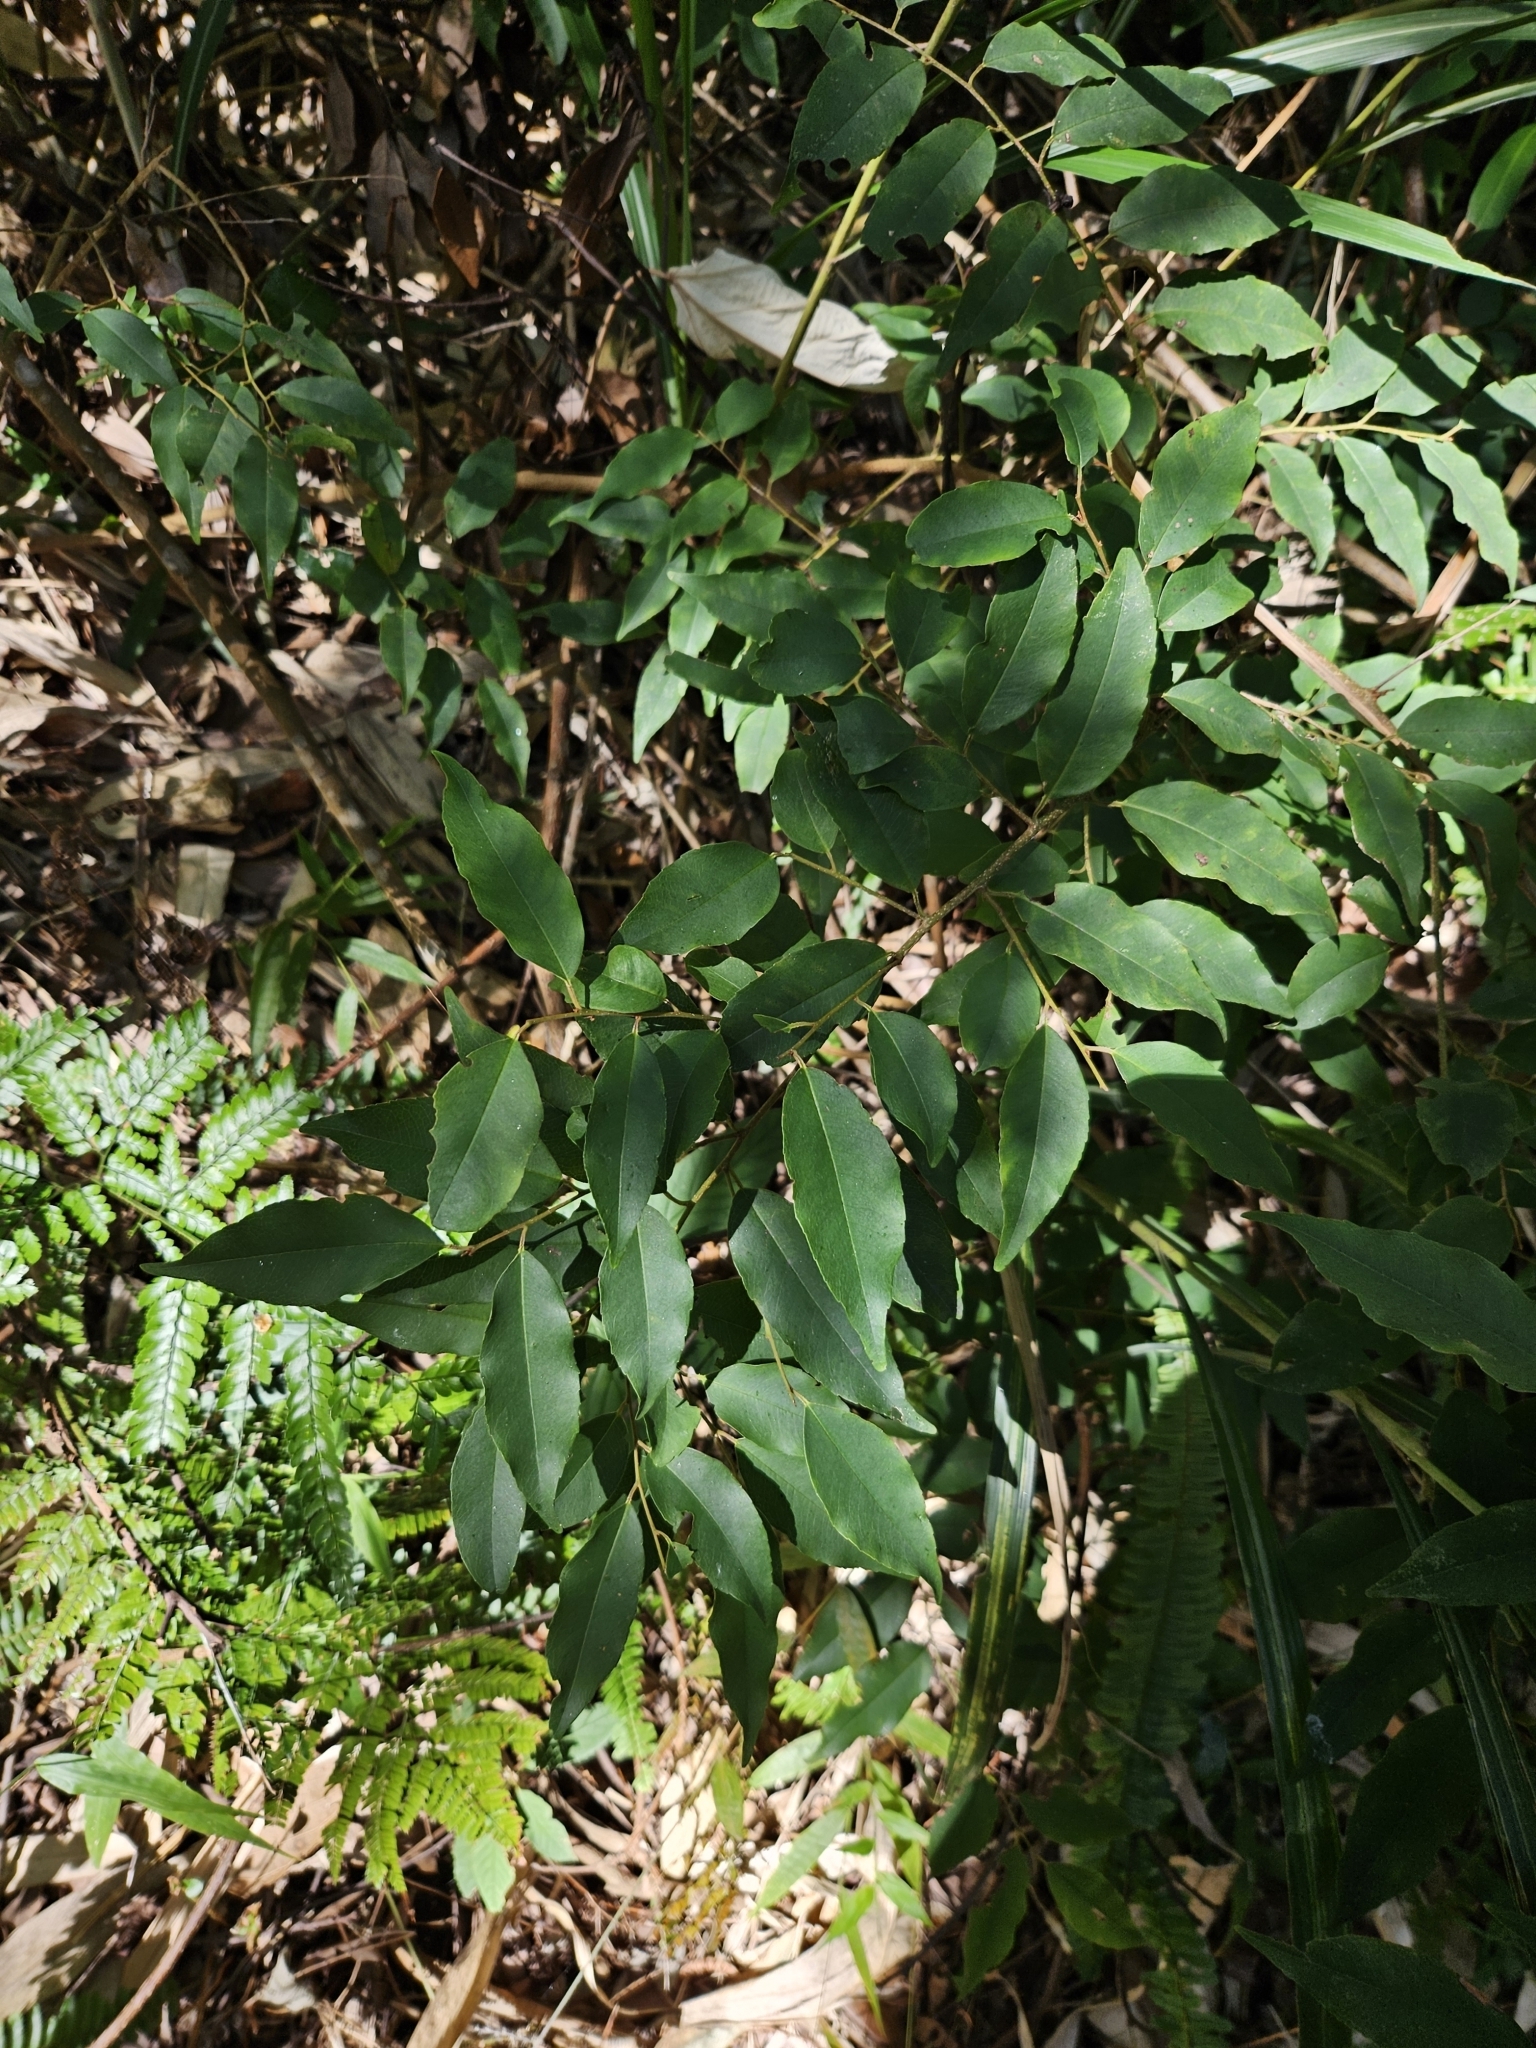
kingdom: Plantae
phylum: Tracheophyta
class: Magnoliopsida
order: Ericales
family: Symplocaceae
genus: Symplocos
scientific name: Symplocos lancifolia
